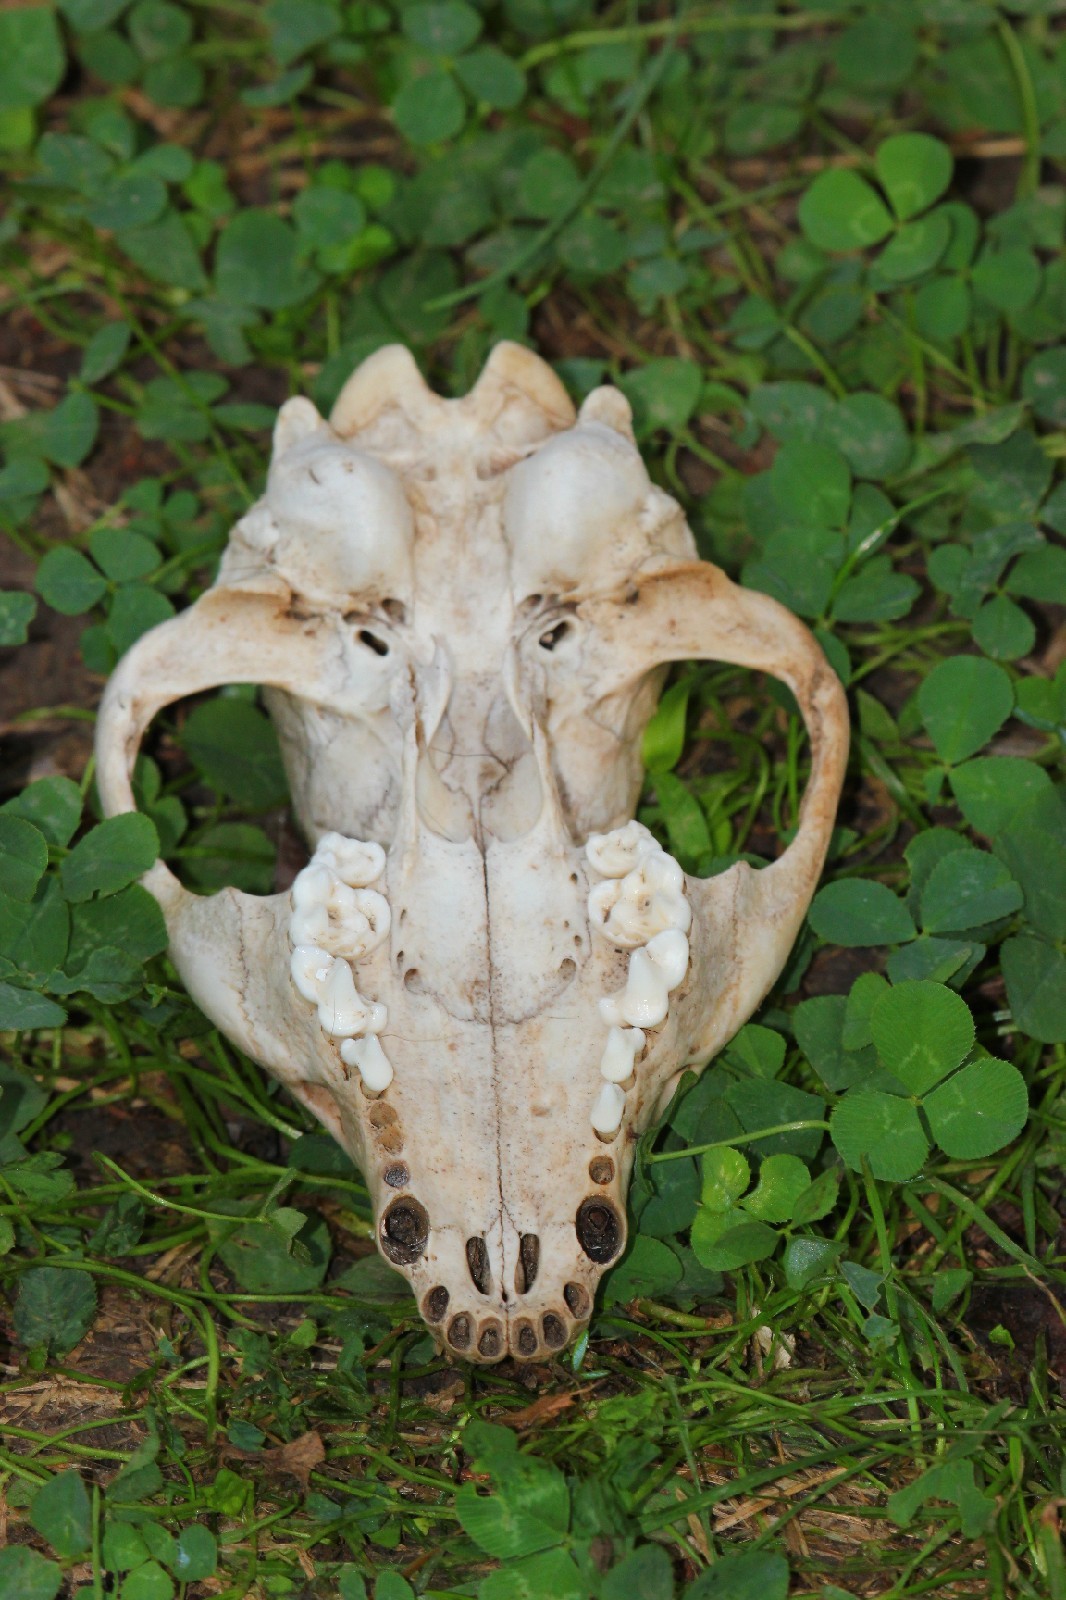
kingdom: Animalia
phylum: Chordata
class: Mammalia
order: Carnivora
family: Canidae
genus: Nyctereutes
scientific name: Nyctereutes procyonoides
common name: Raccoon dog
